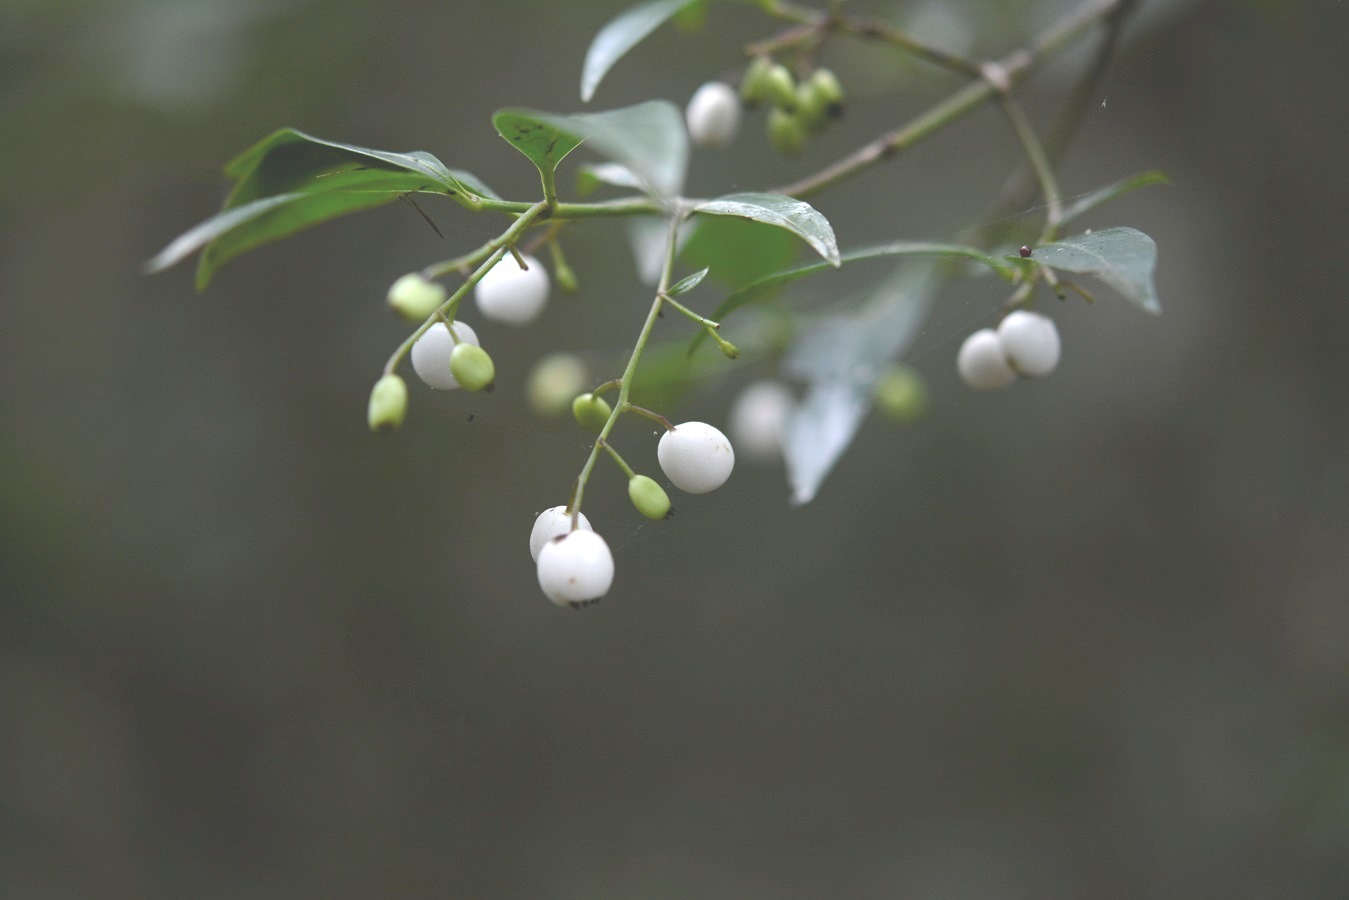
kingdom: Plantae
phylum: Tracheophyta
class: Magnoliopsida
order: Gentianales
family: Rubiaceae
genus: Chiococca
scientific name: Chiococca alba
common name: Snowberry
